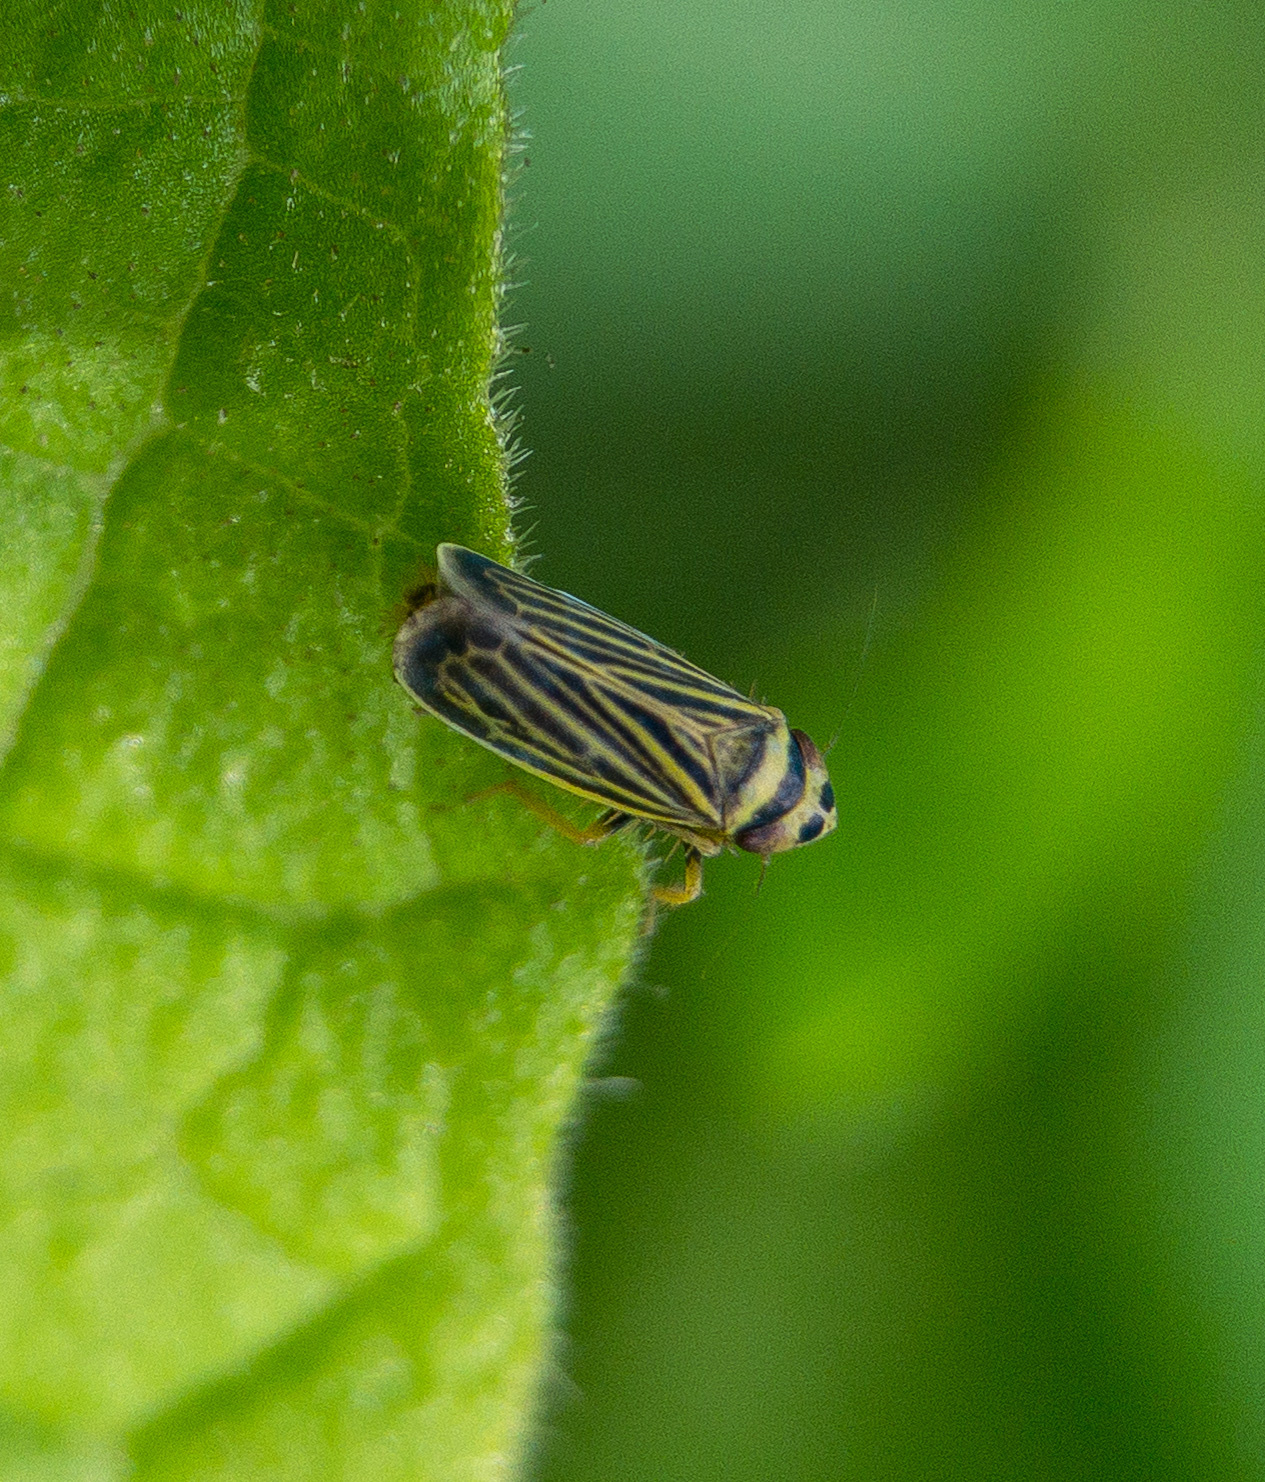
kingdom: Animalia
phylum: Arthropoda
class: Insecta
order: Hemiptera
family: Cicadellidae
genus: Amblysellus
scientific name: Amblysellus curtisii
